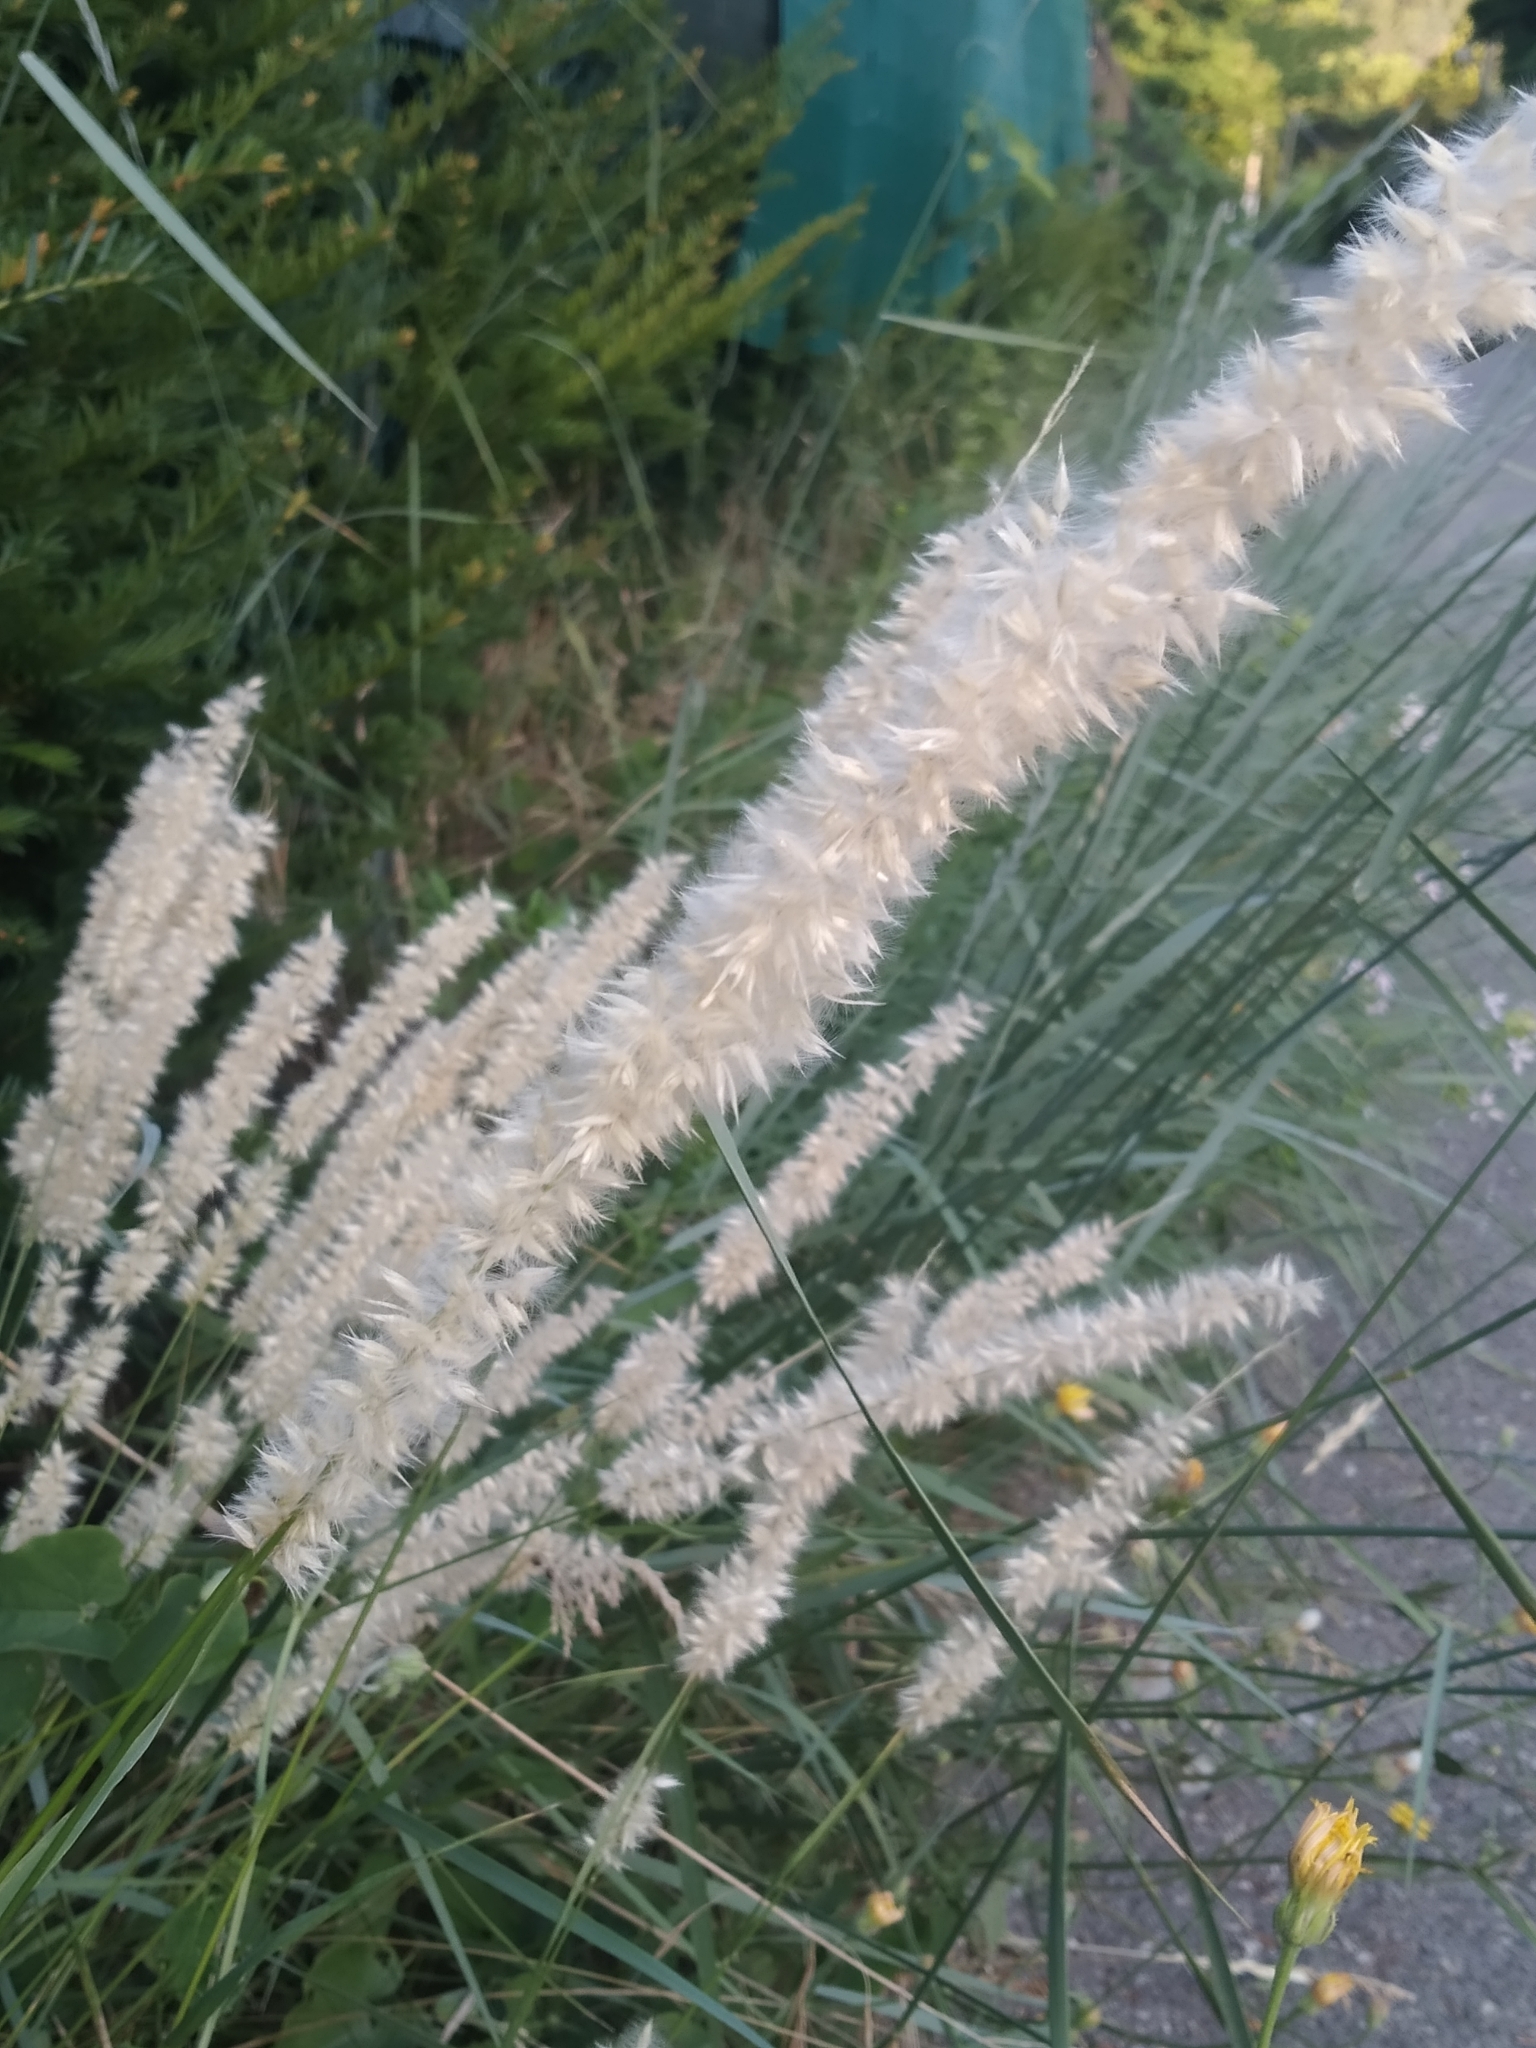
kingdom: Plantae
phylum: Tracheophyta
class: Liliopsida
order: Poales
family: Poaceae
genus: Melica
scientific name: Melica ciliata
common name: Hairy melicgrass
